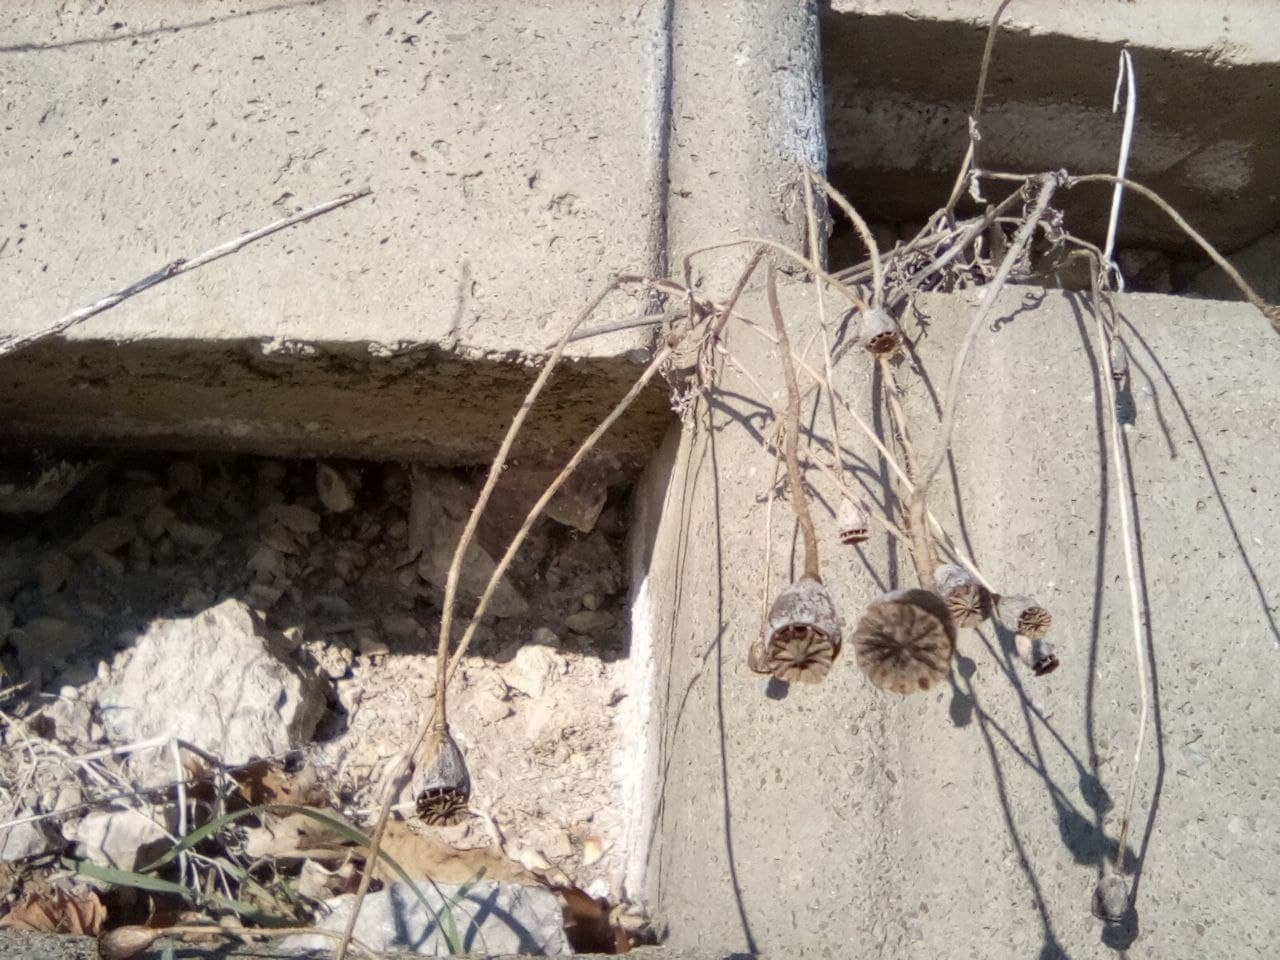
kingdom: Plantae
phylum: Tracheophyta
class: Magnoliopsida
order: Ranunculales
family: Papaveraceae
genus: Papaver
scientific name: Papaver rhoeas
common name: Corn poppy
